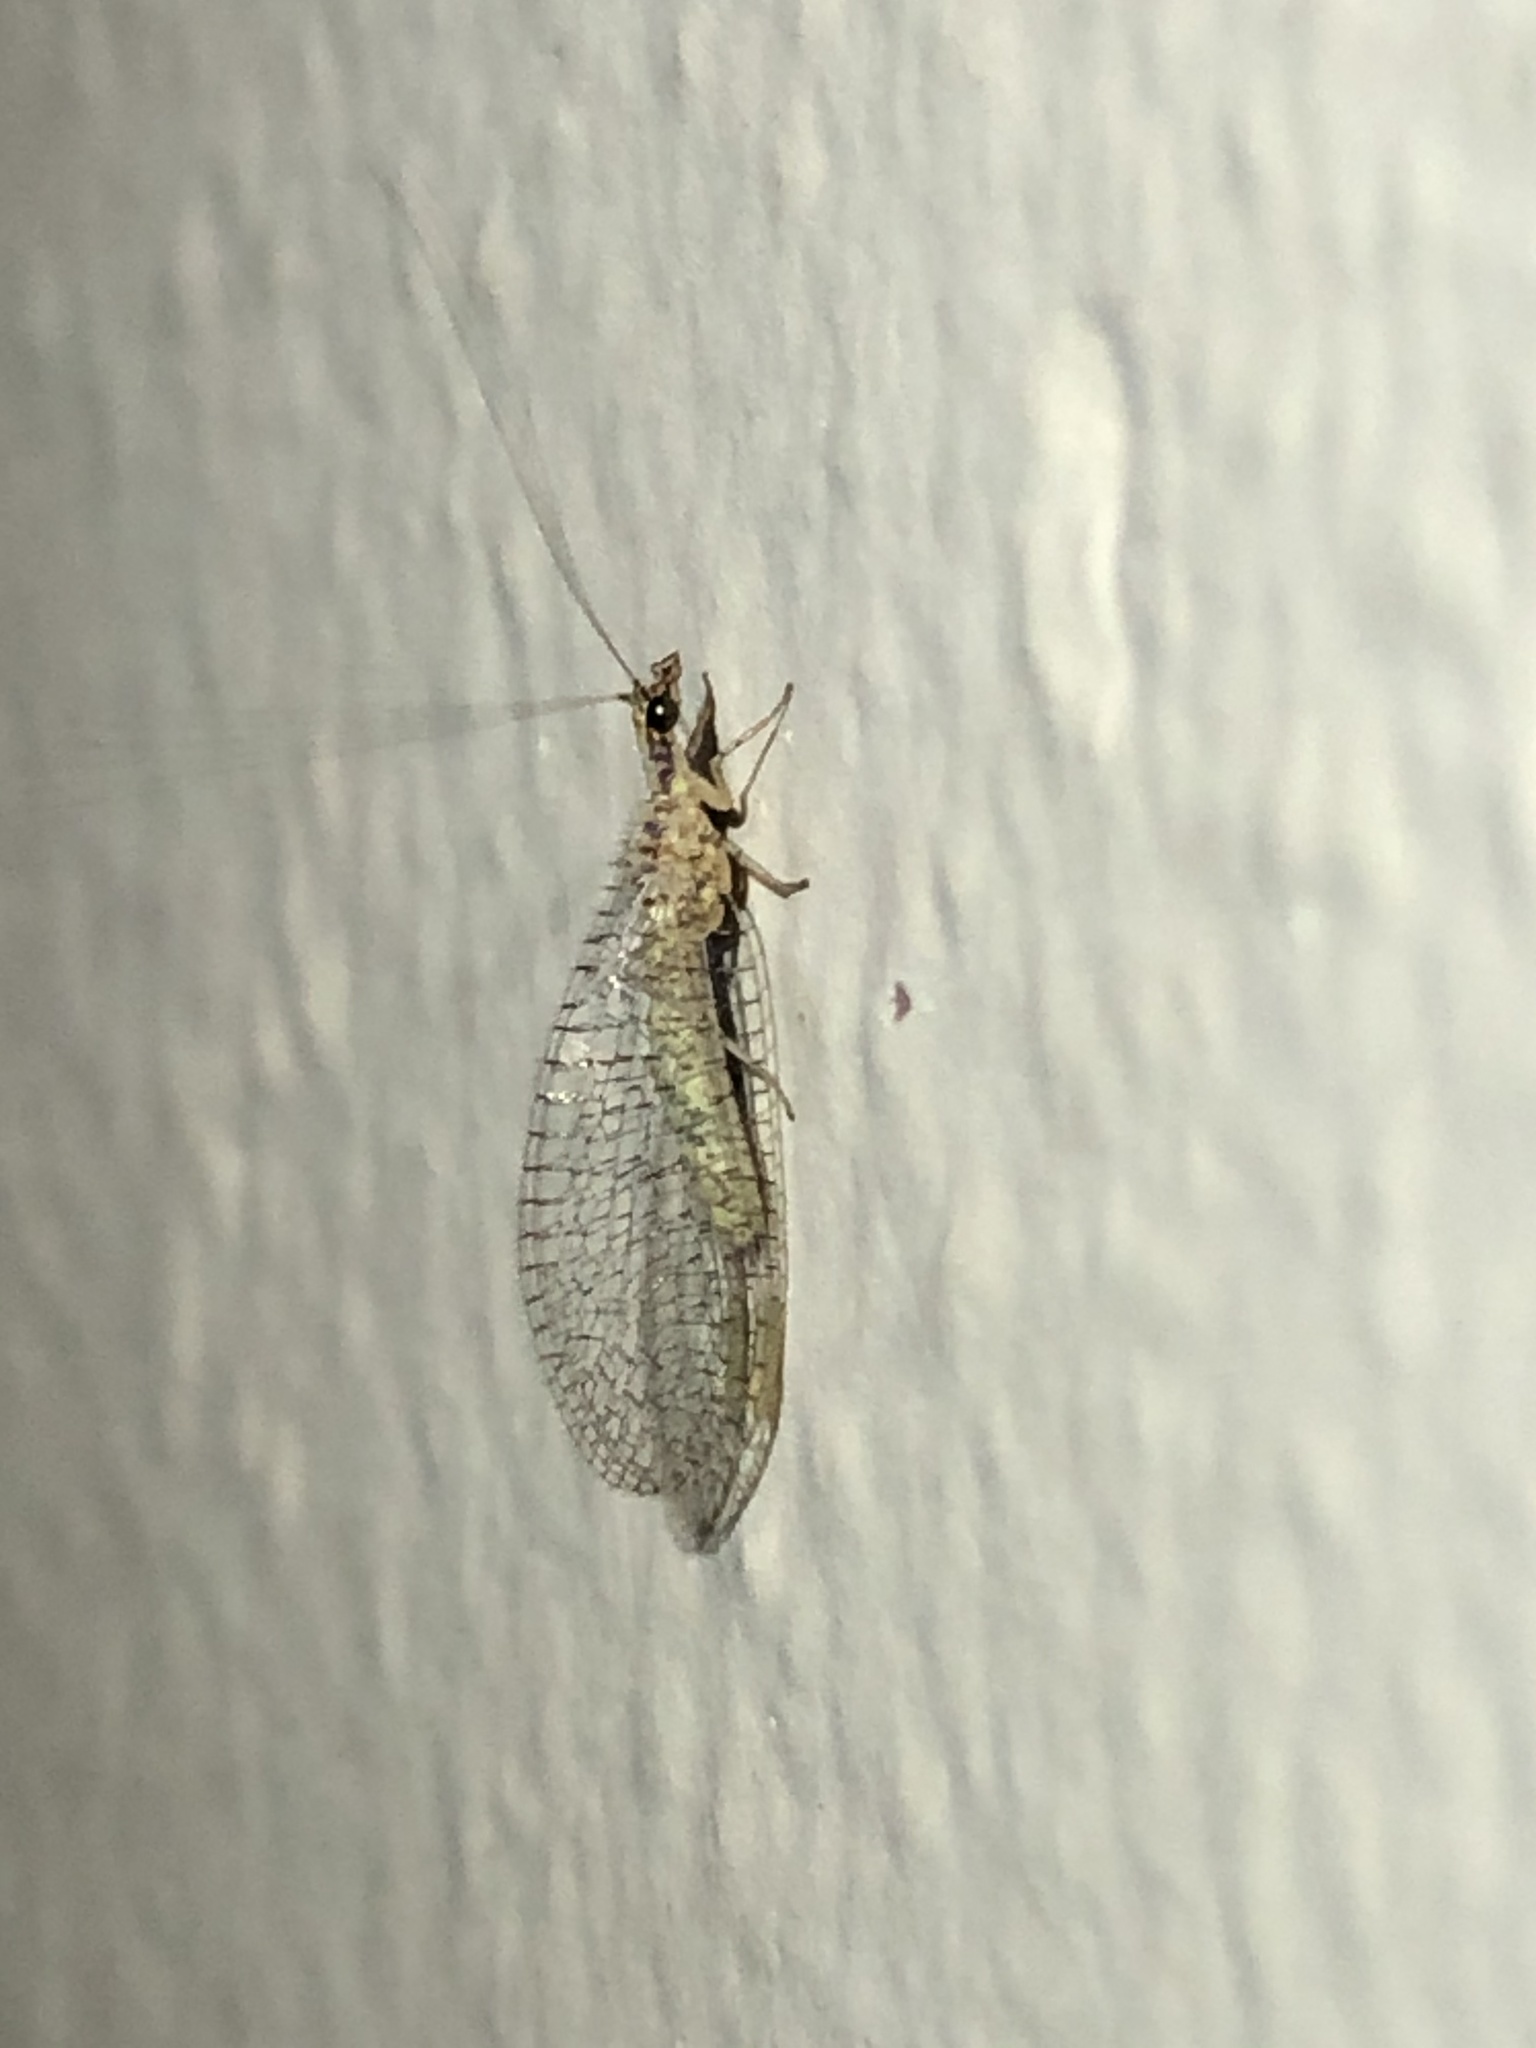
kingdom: Animalia
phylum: Arthropoda
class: Insecta
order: Neuroptera
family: Chrysopidae
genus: Eremochrysa
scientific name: Eremochrysa tibialis
